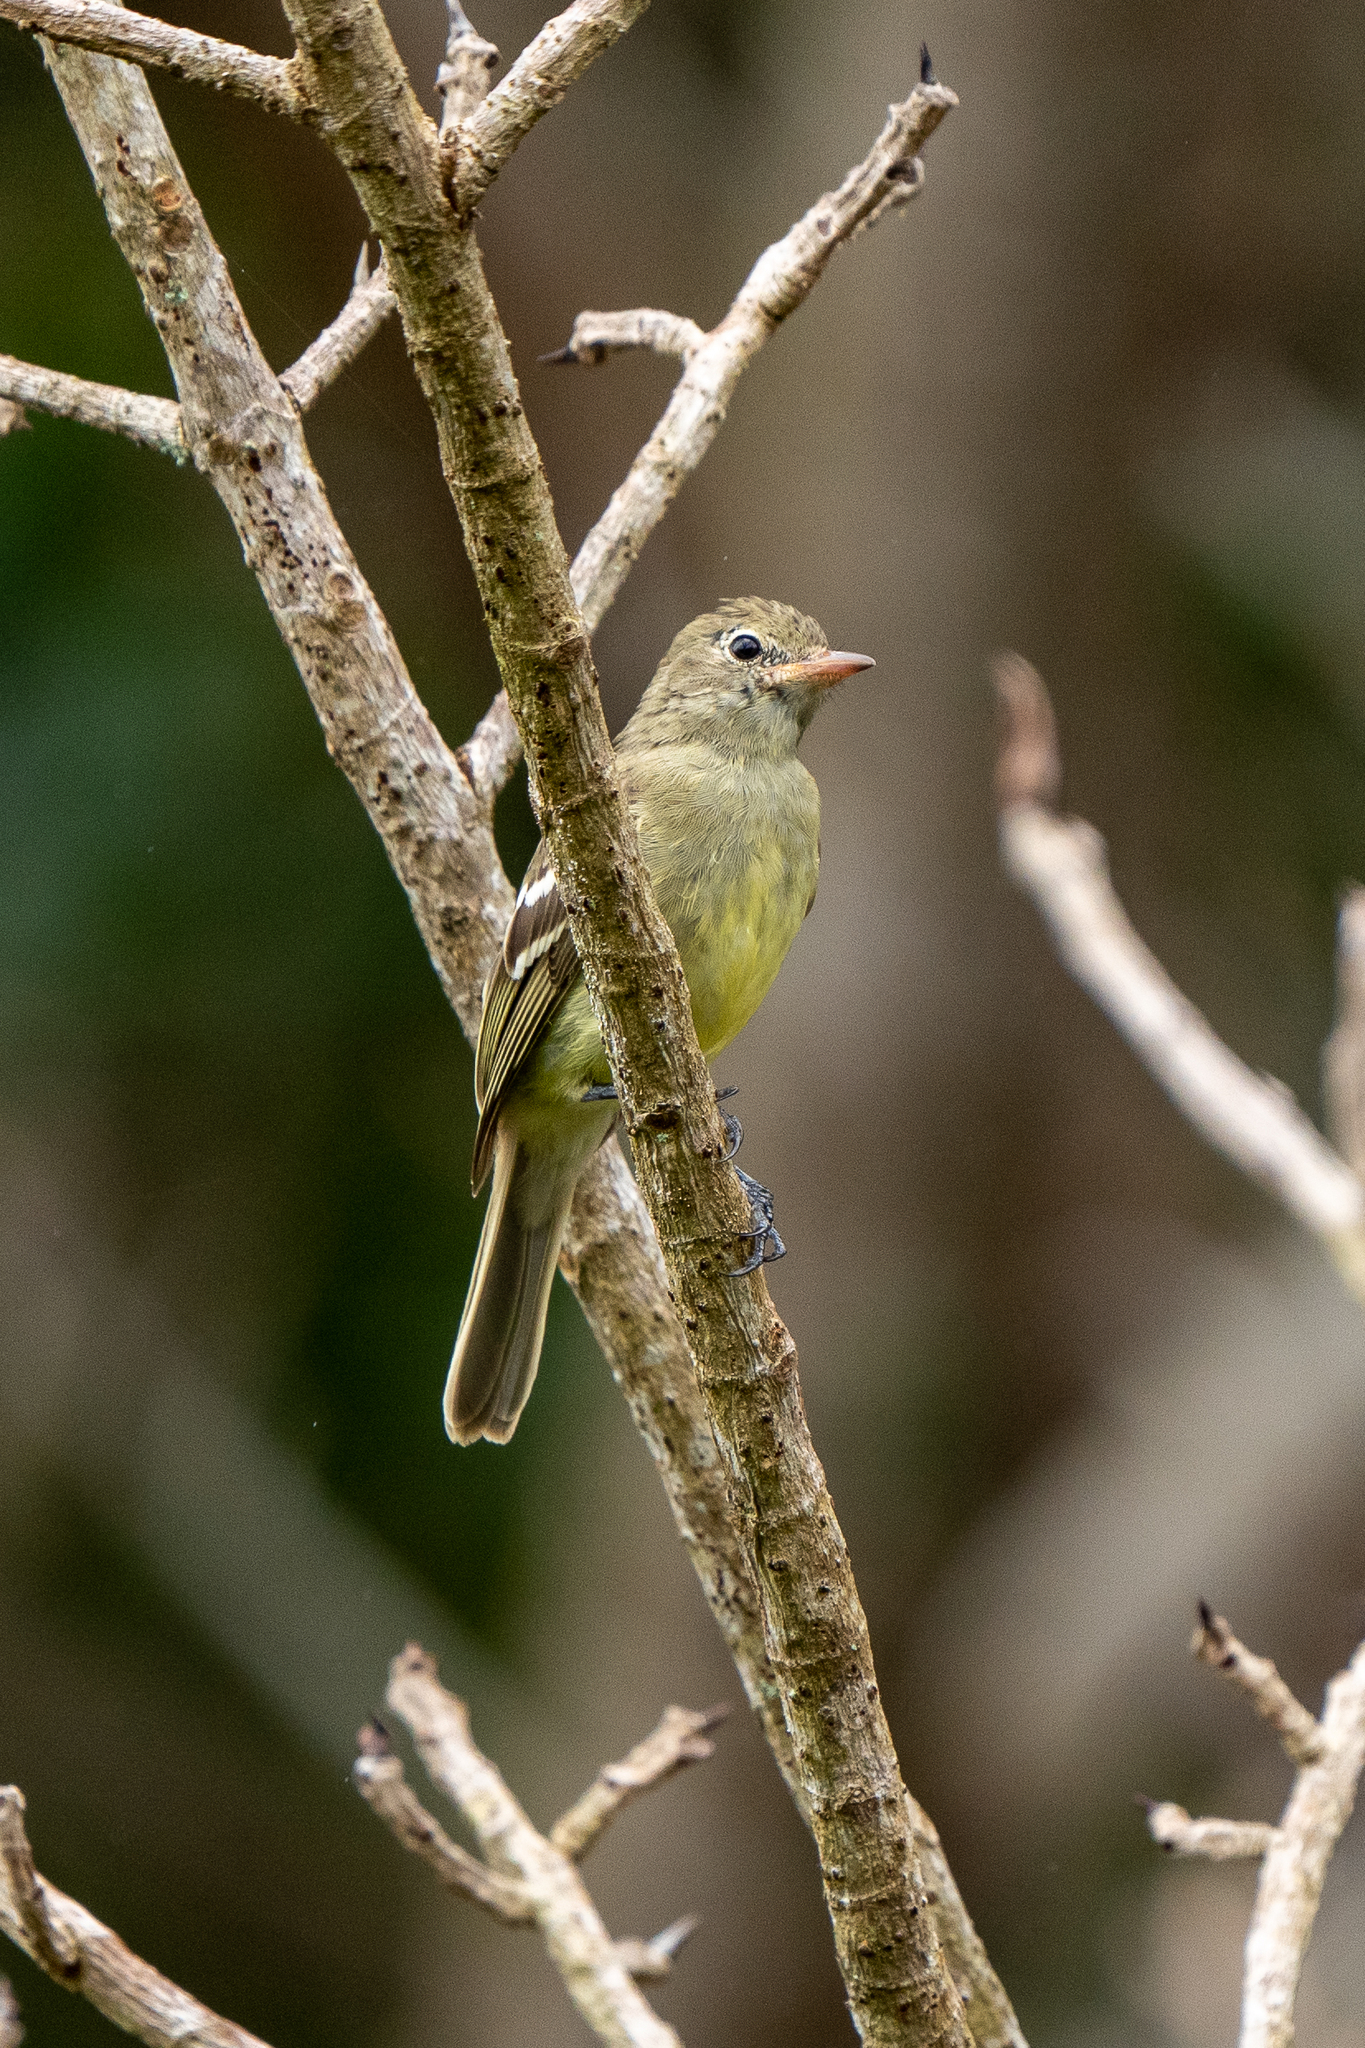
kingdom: Animalia
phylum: Chordata
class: Aves
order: Passeriformes
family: Tyrannidae
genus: Elaenia
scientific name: Elaenia frantzii
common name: Mountain elaenia
